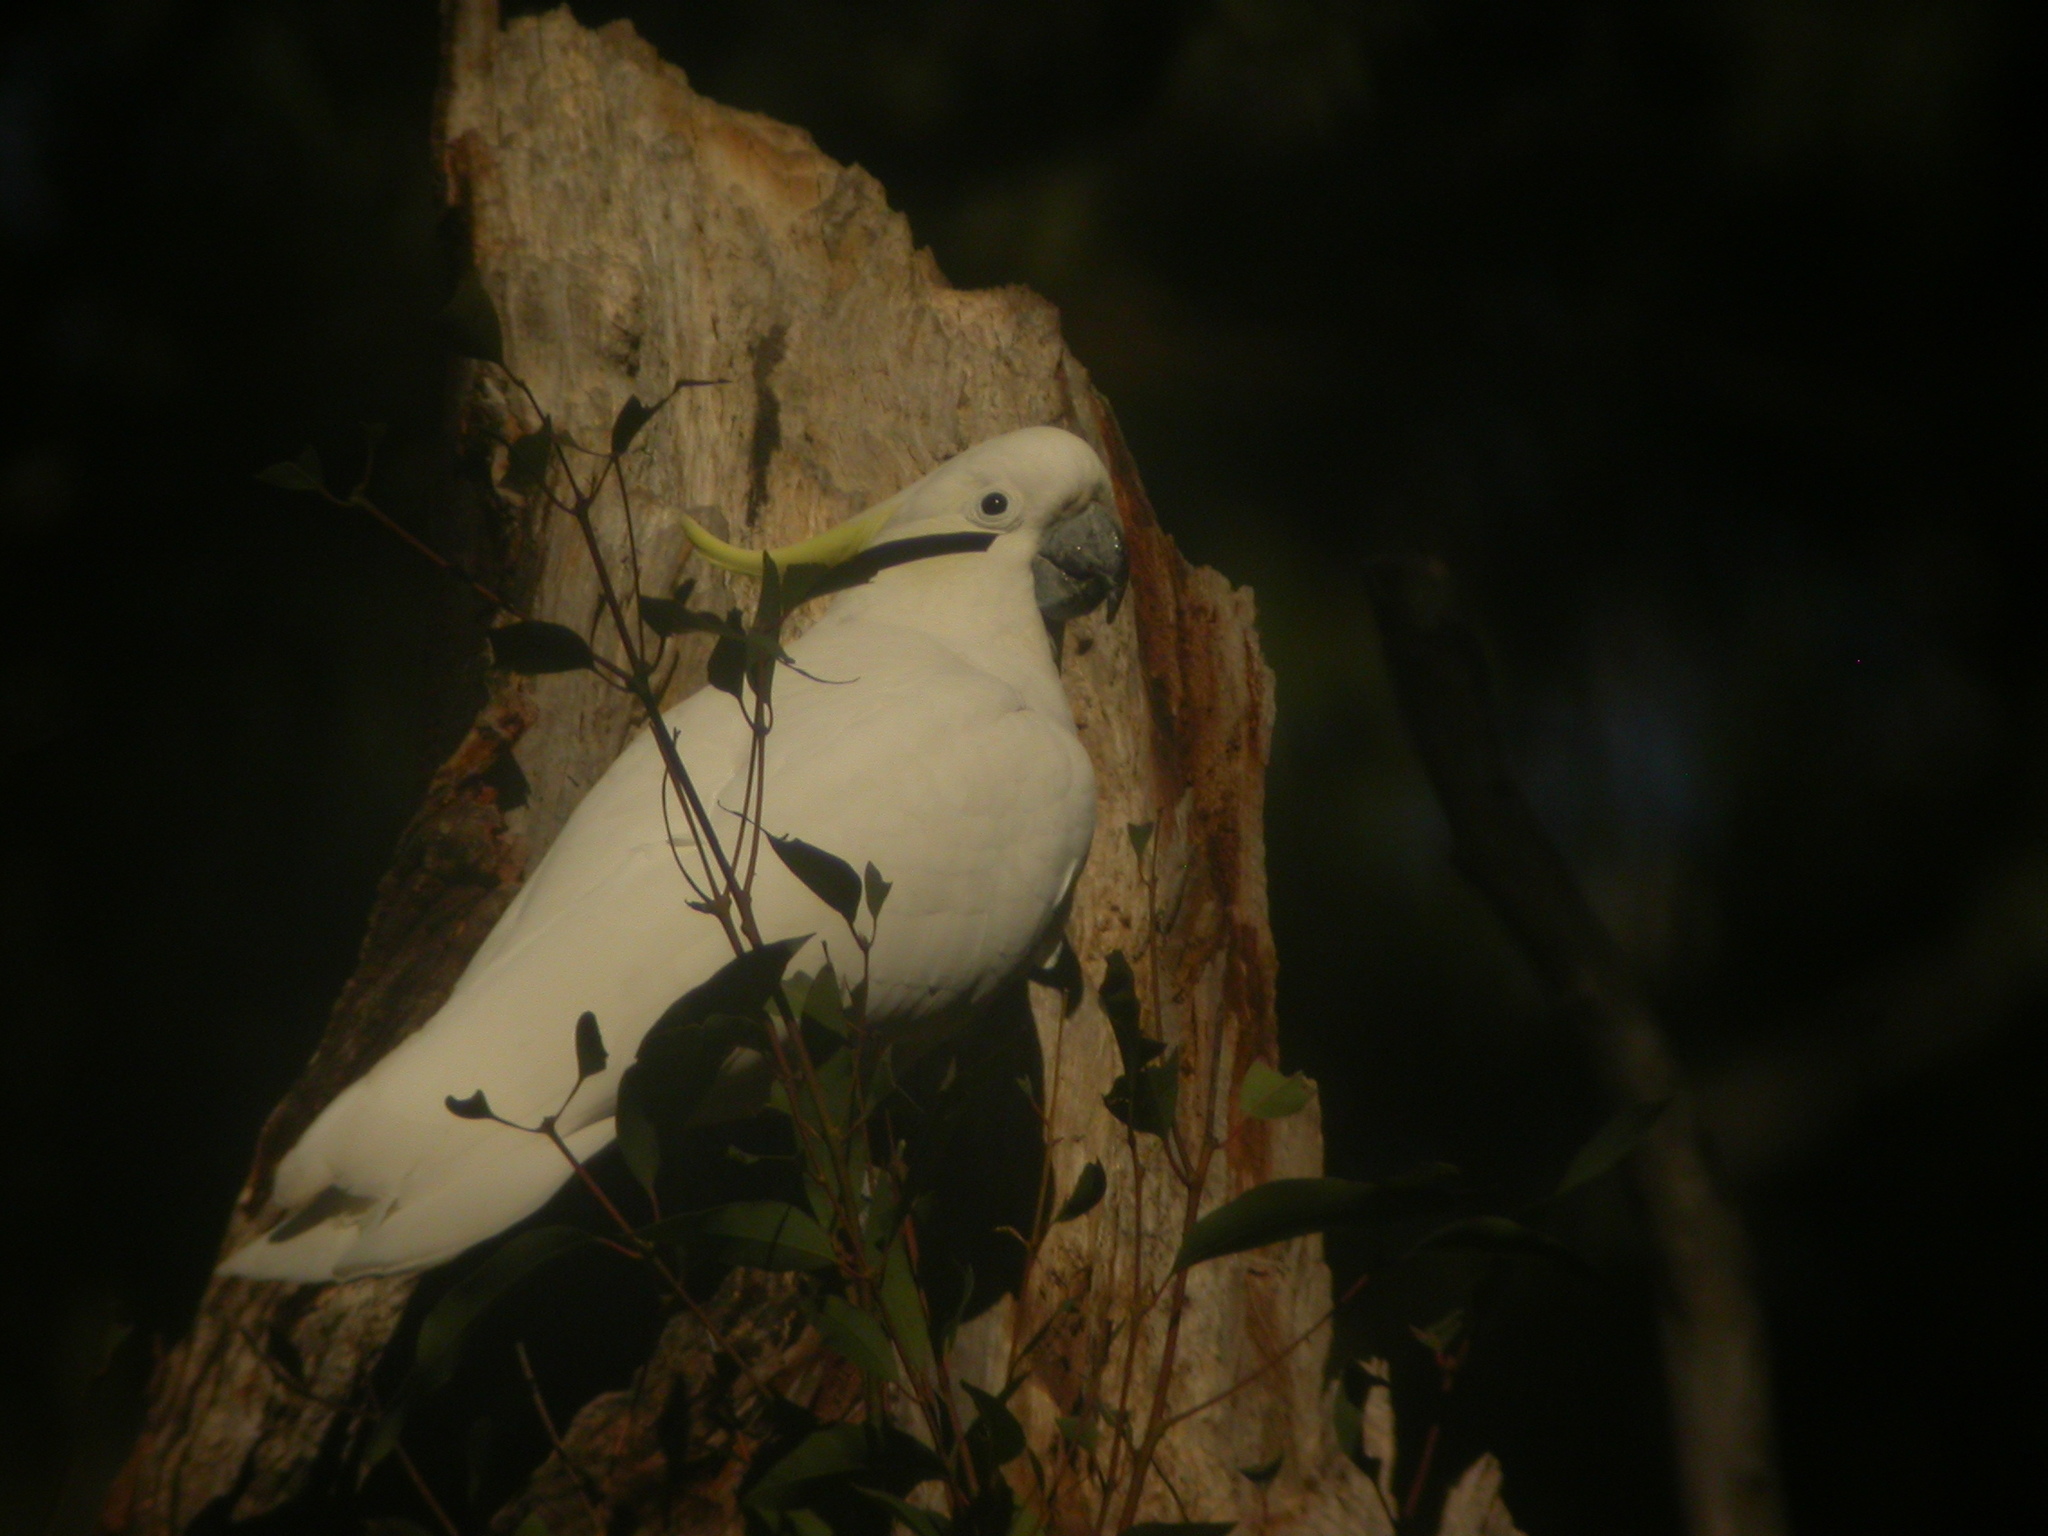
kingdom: Animalia
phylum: Chordata
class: Aves
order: Psittaciformes
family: Psittacidae
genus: Cacatua
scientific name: Cacatua galerita
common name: Sulphur-crested cockatoo
